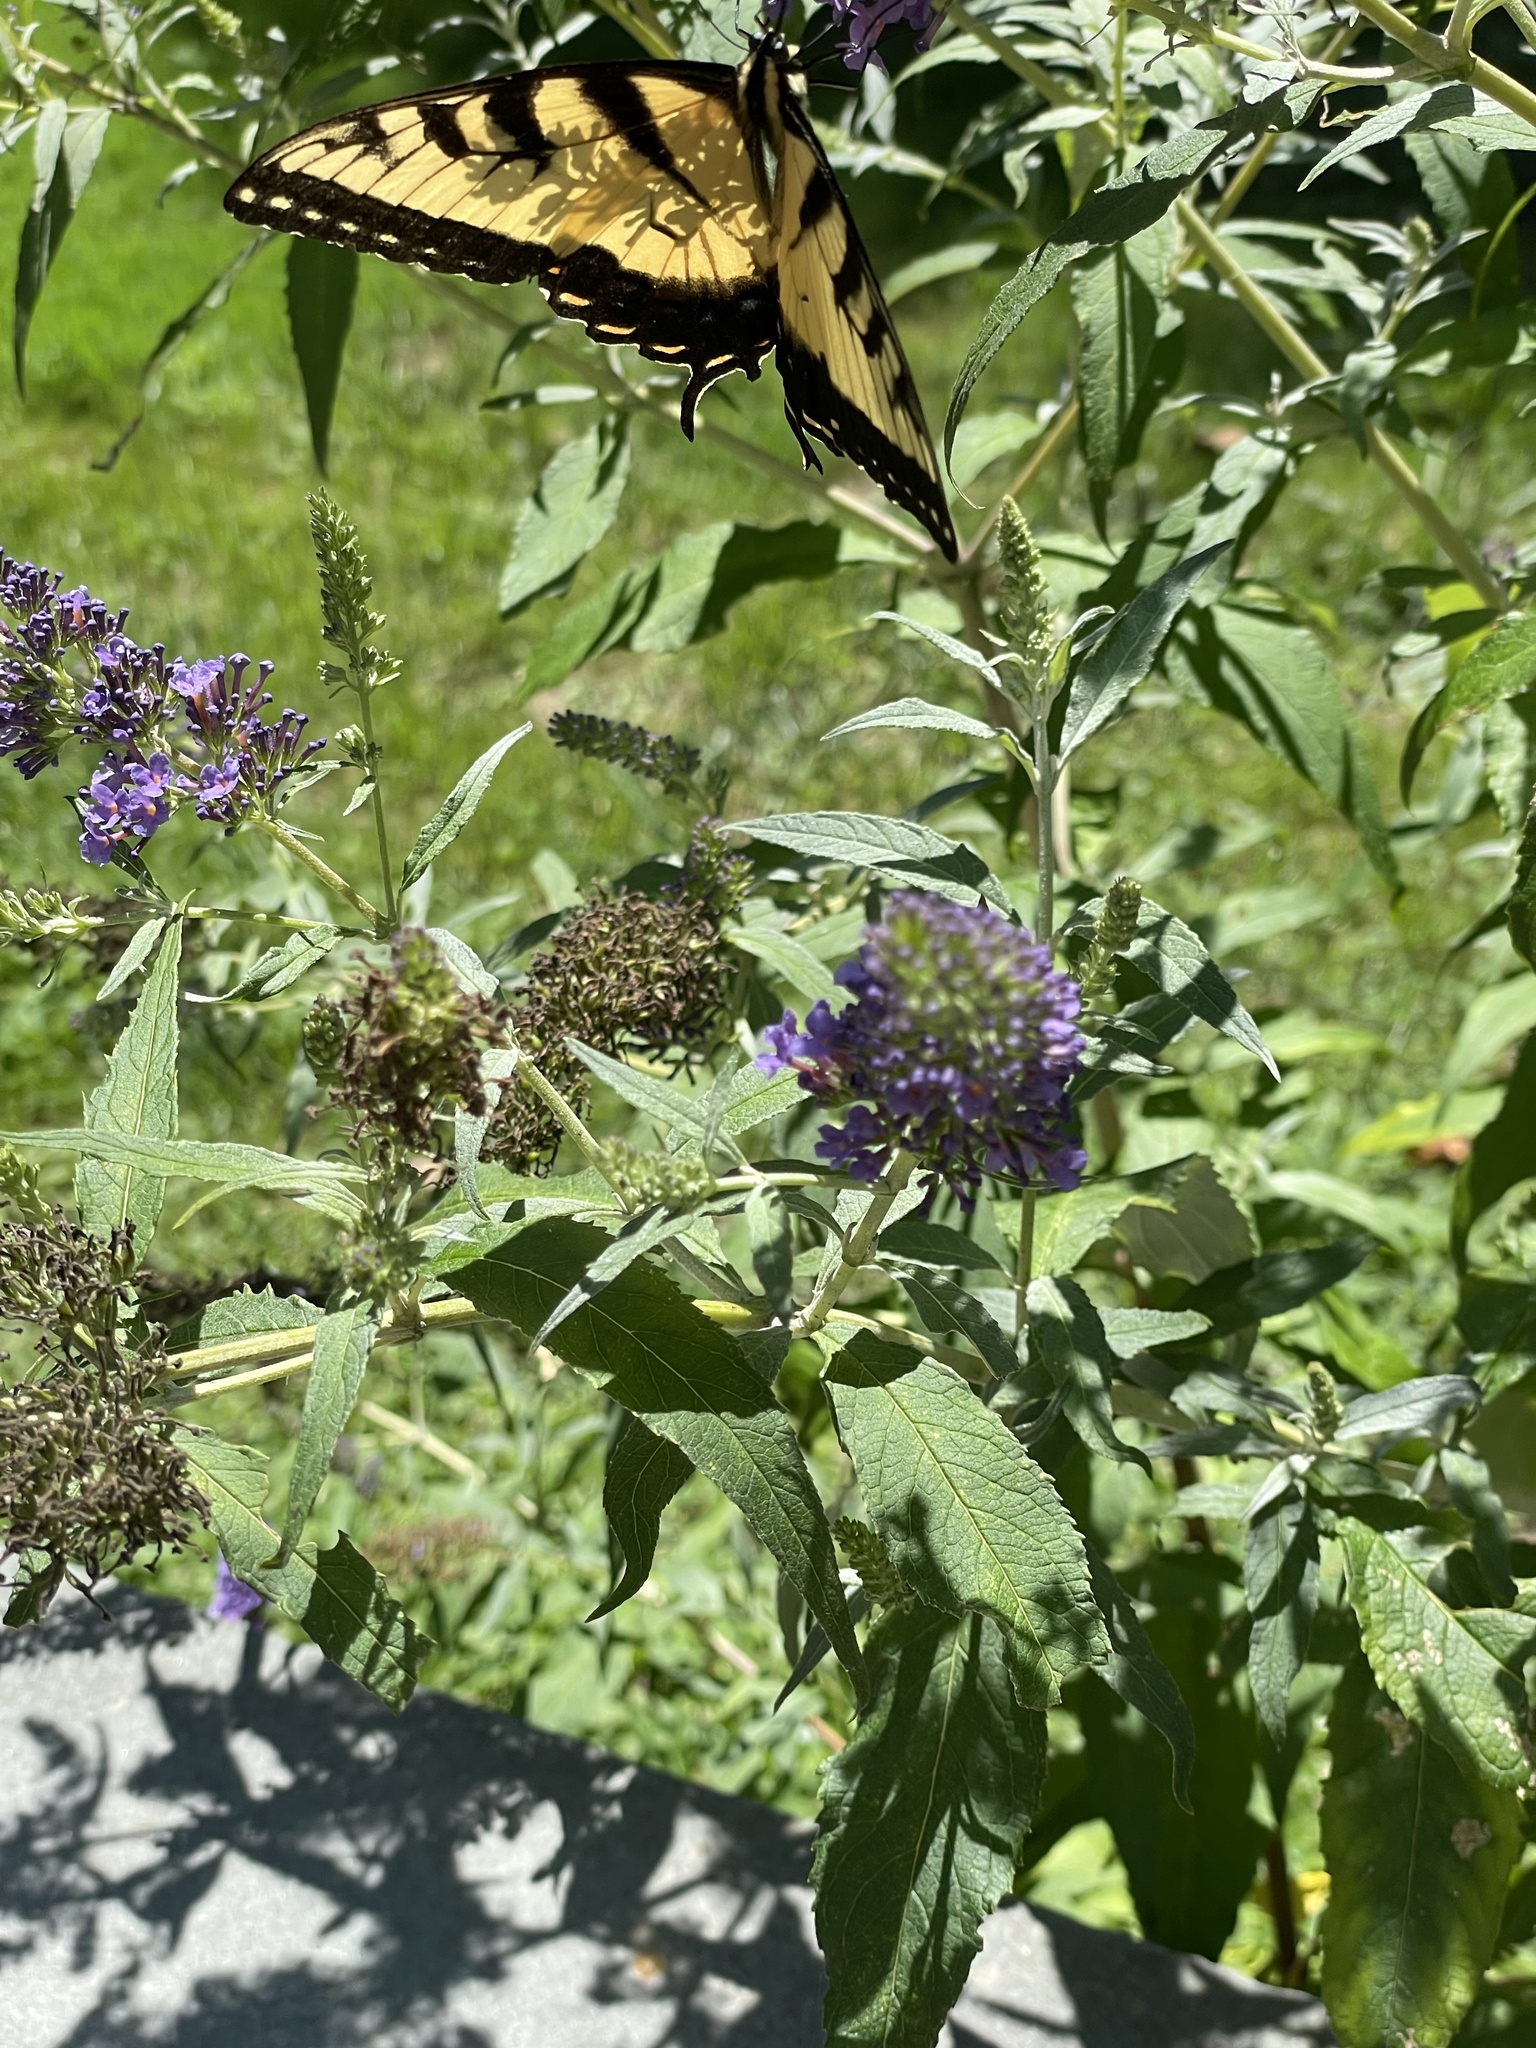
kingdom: Animalia
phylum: Arthropoda
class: Insecta
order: Lepidoptera
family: Papilionidae
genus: Papilio
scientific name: Papilio glaucus
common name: Tiger swallowtail
